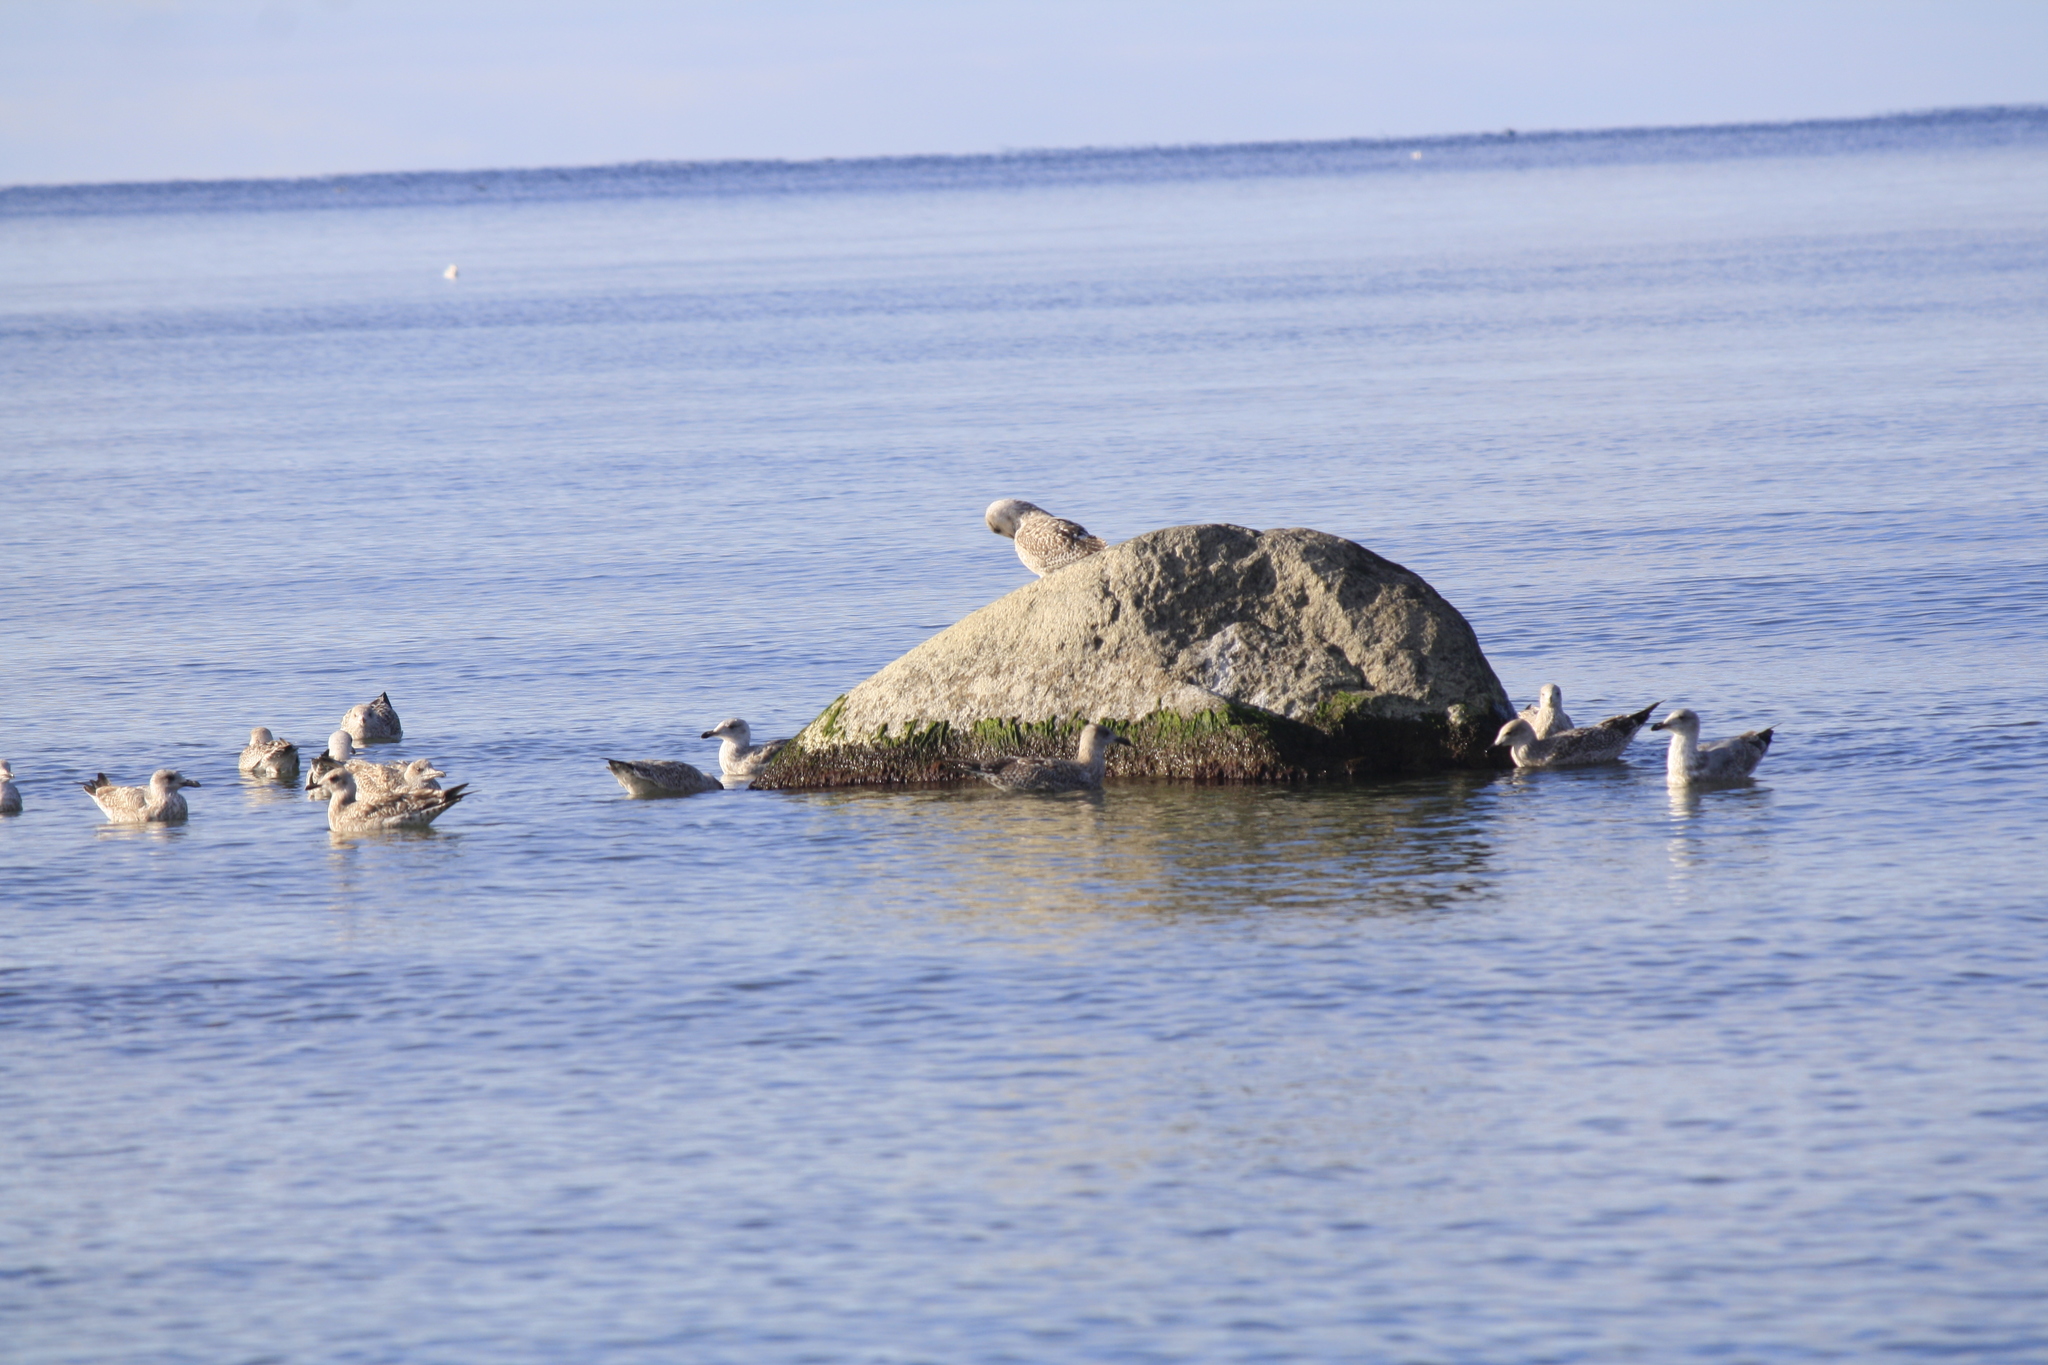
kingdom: Animalia
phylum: Chordata
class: Aves
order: Charadriiformes
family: Laridae
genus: Larus
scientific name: Larus argentatus
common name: Herring gull
